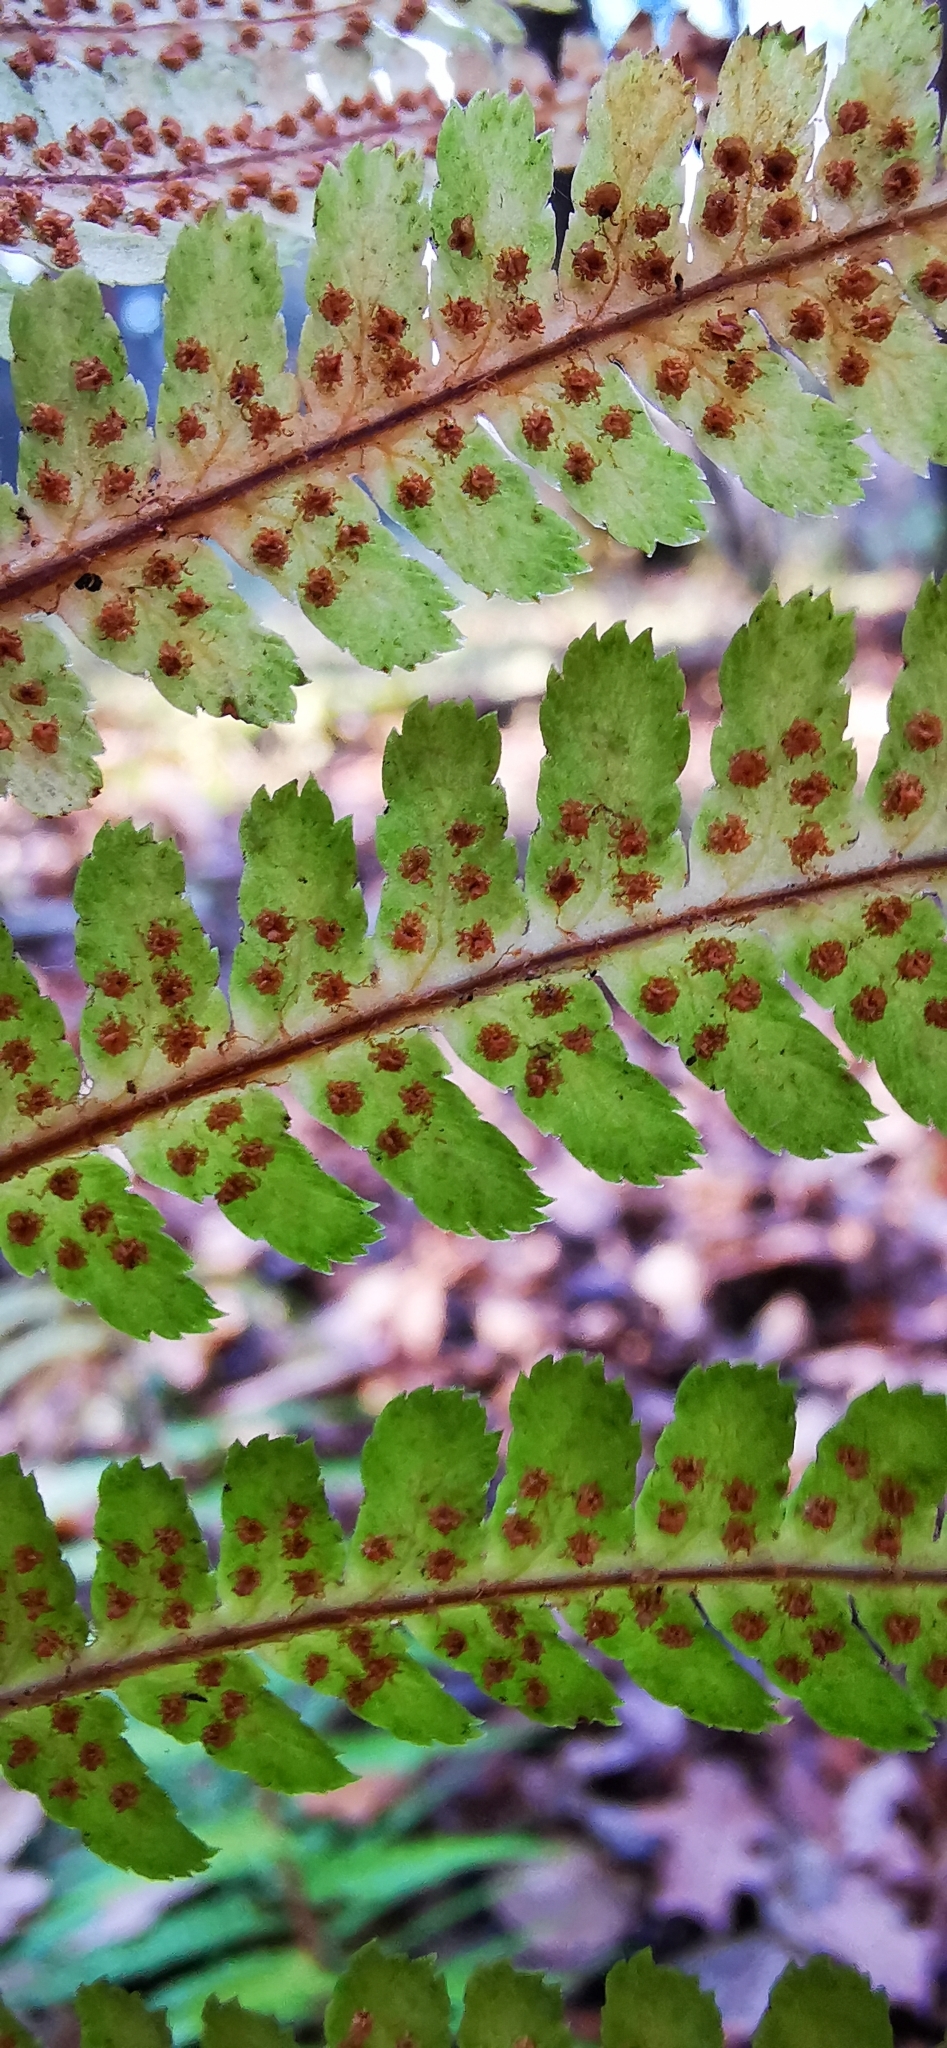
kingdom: Plantae
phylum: Tracheophyta
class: Polypodiopsida
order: Polypodiales
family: Dryopteridaceae
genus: Dryopteris
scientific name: Dryopteris filix-mas
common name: Male fern
